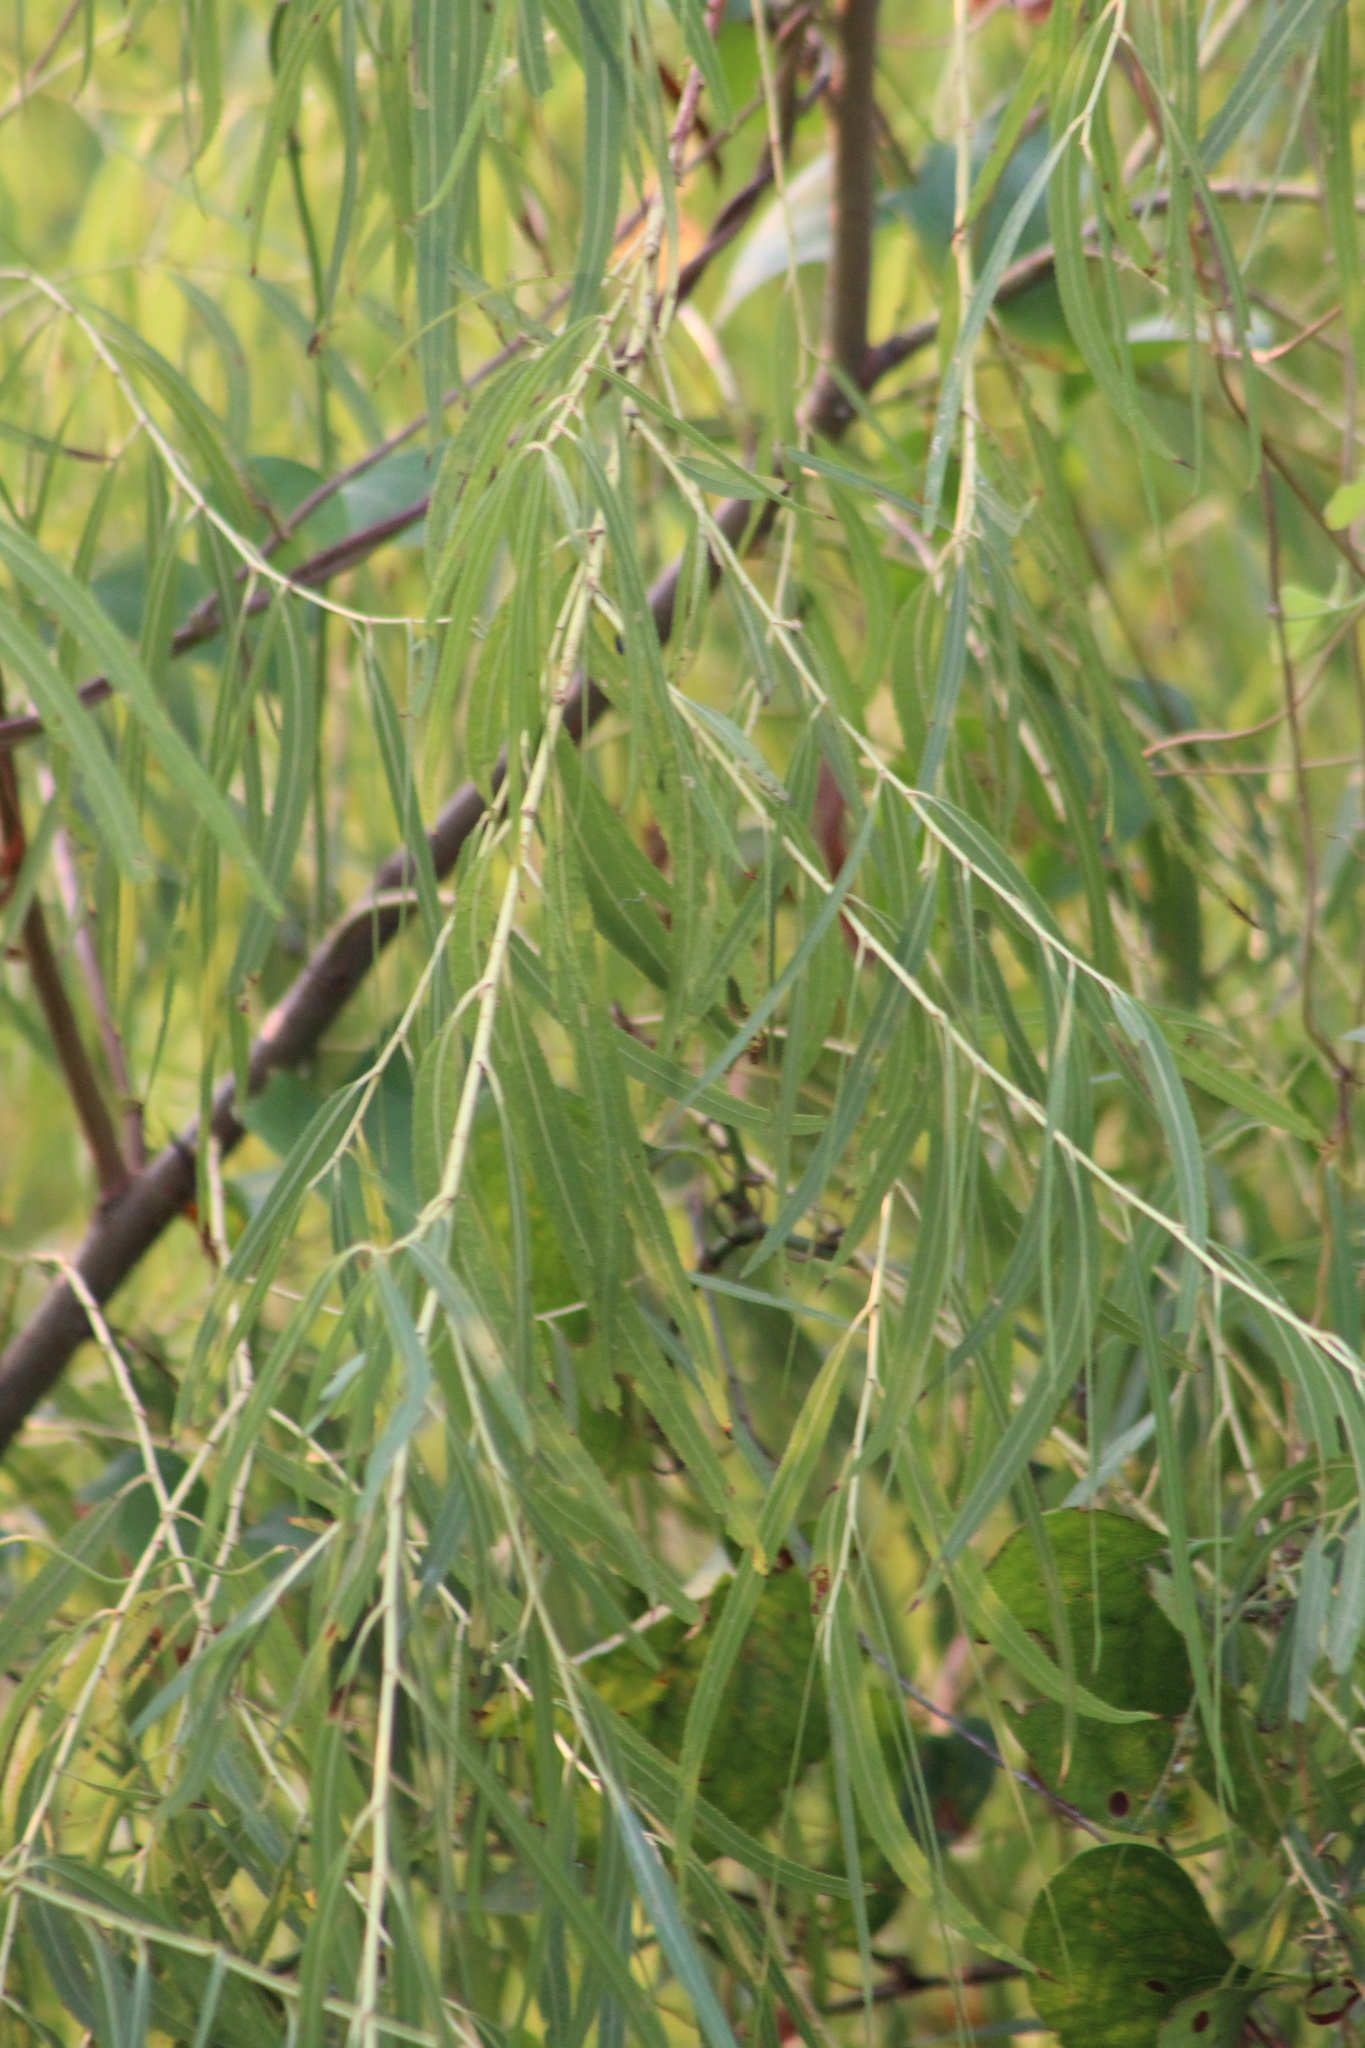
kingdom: Plantae
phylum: Tracheophyta
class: Magnoliopsida
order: Malpighiales
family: Salicaceae
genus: Salix
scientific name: Salix nigra
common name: Black willow
